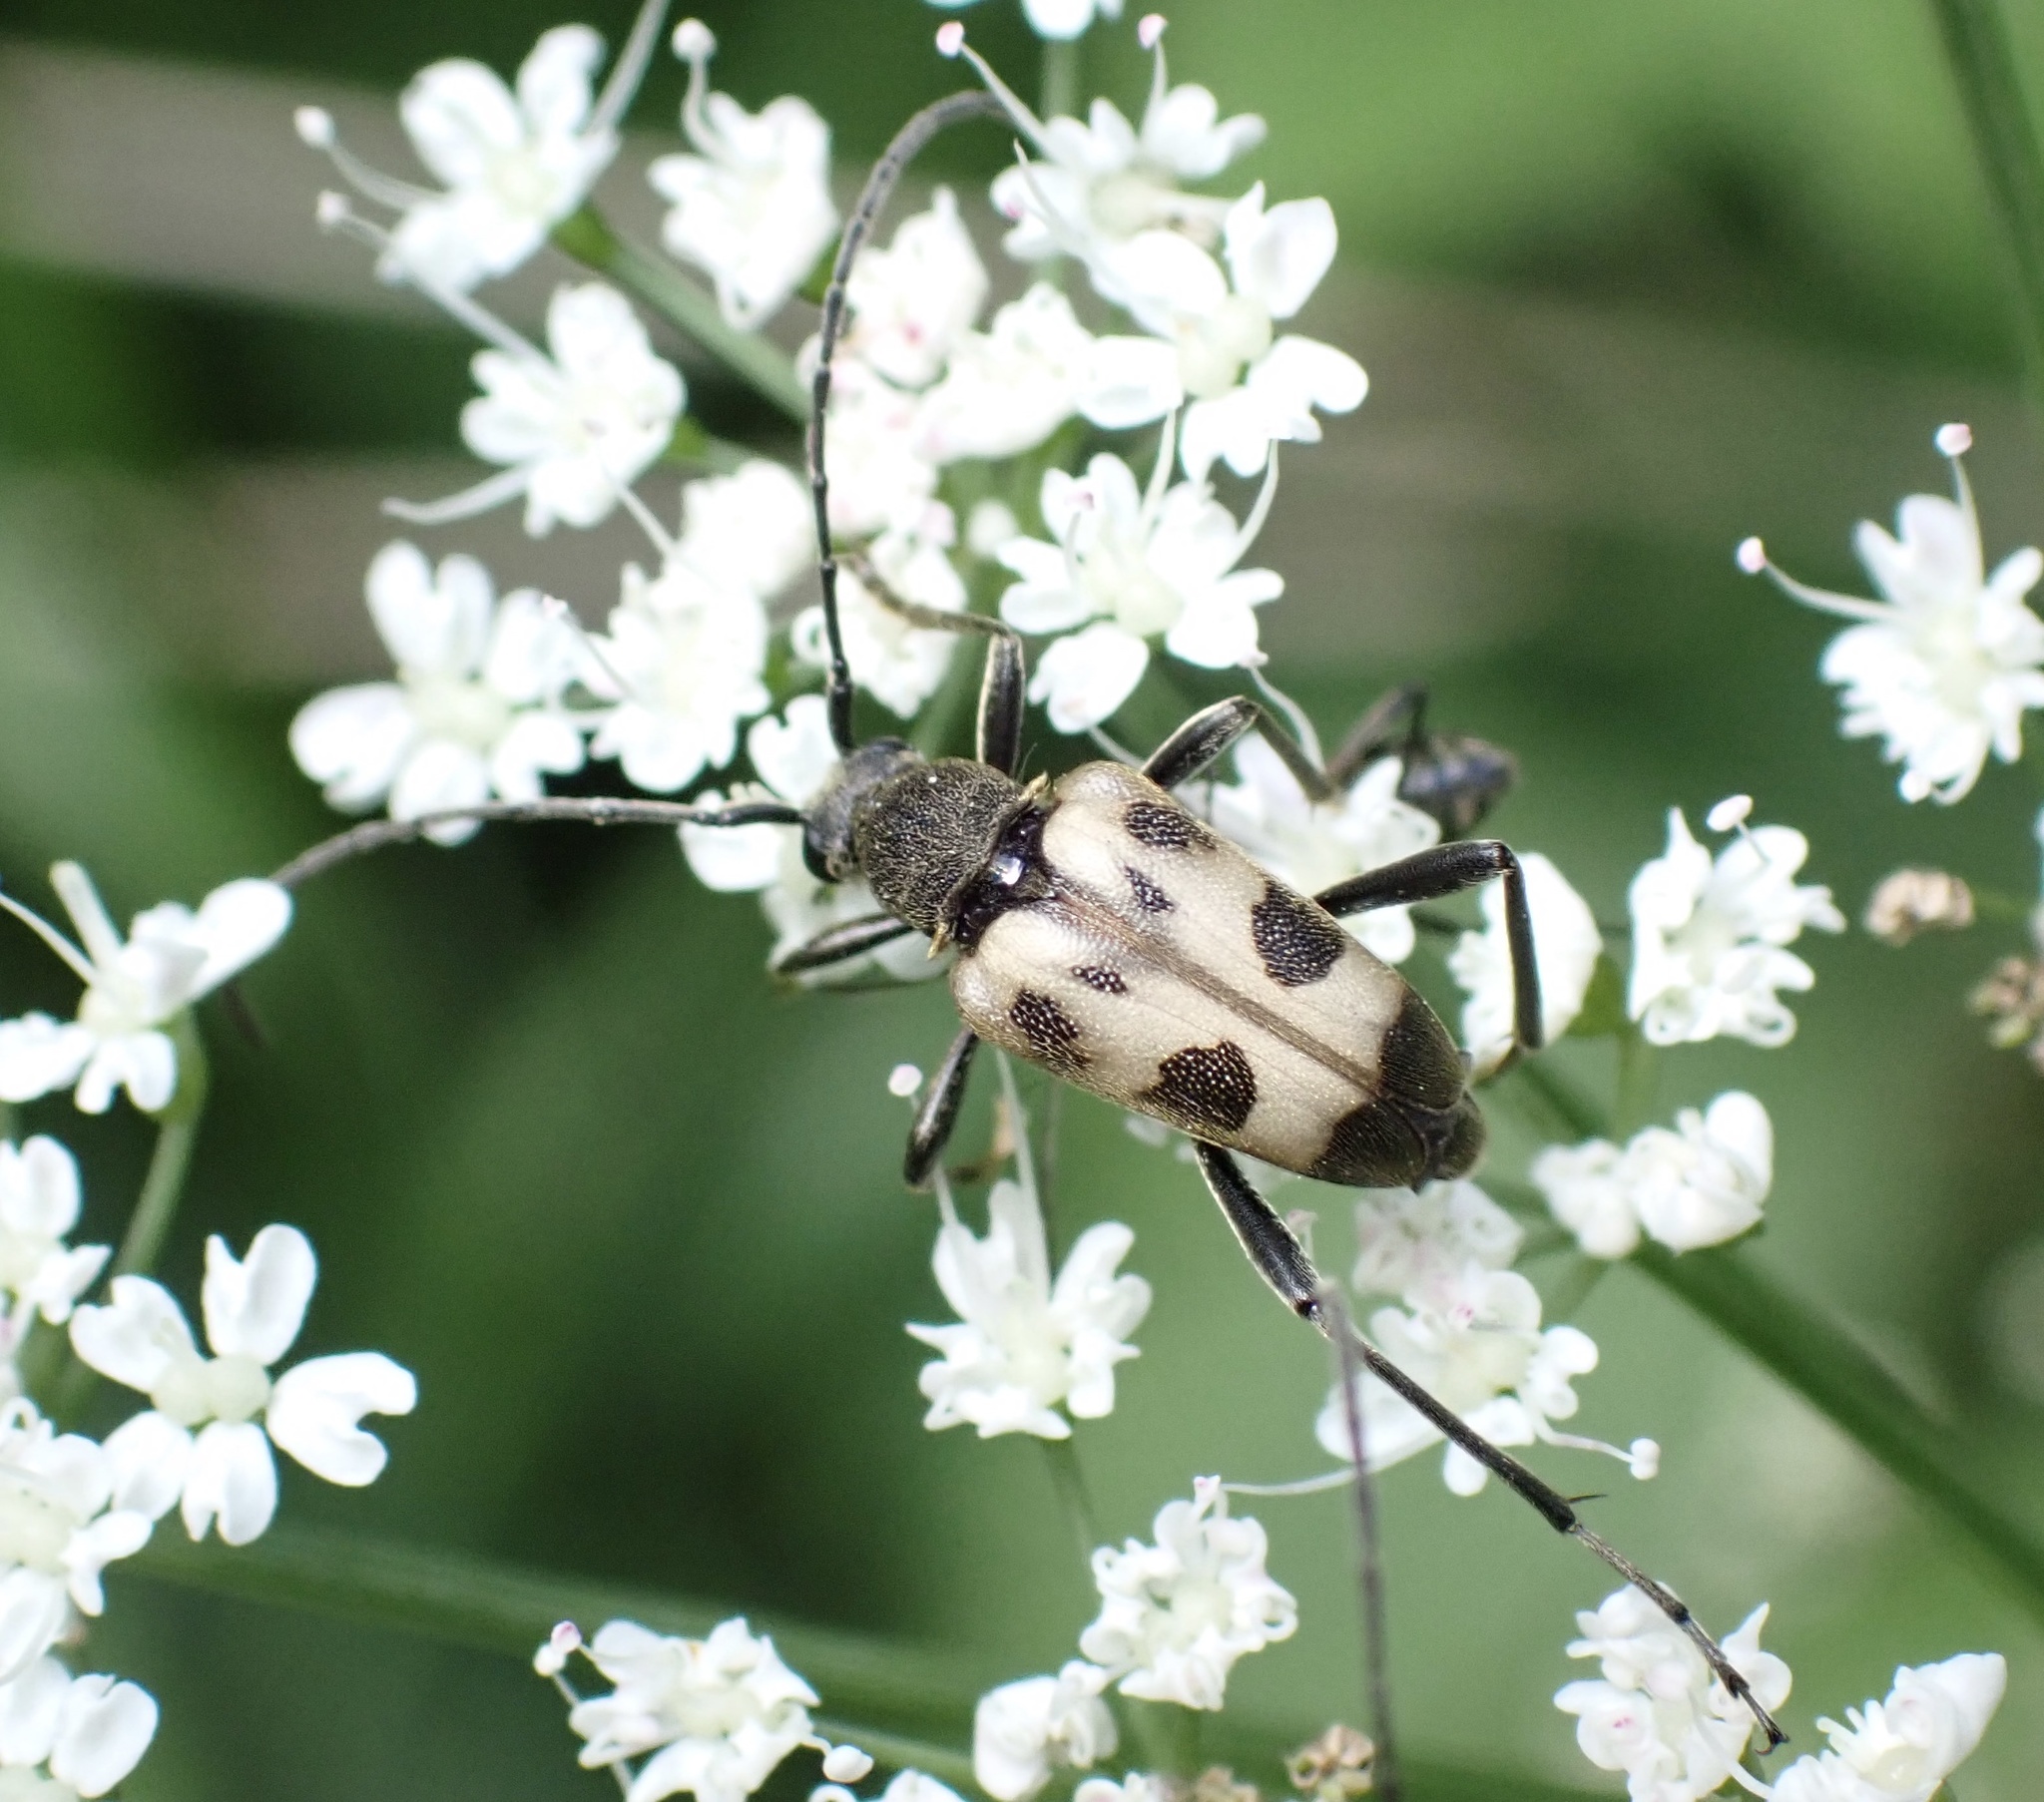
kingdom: Animalia
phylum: Arthropoda
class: Insecta
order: Coleoptera
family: Cerambycidae
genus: Pachytodes
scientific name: Pachytodes cerambyciformis
